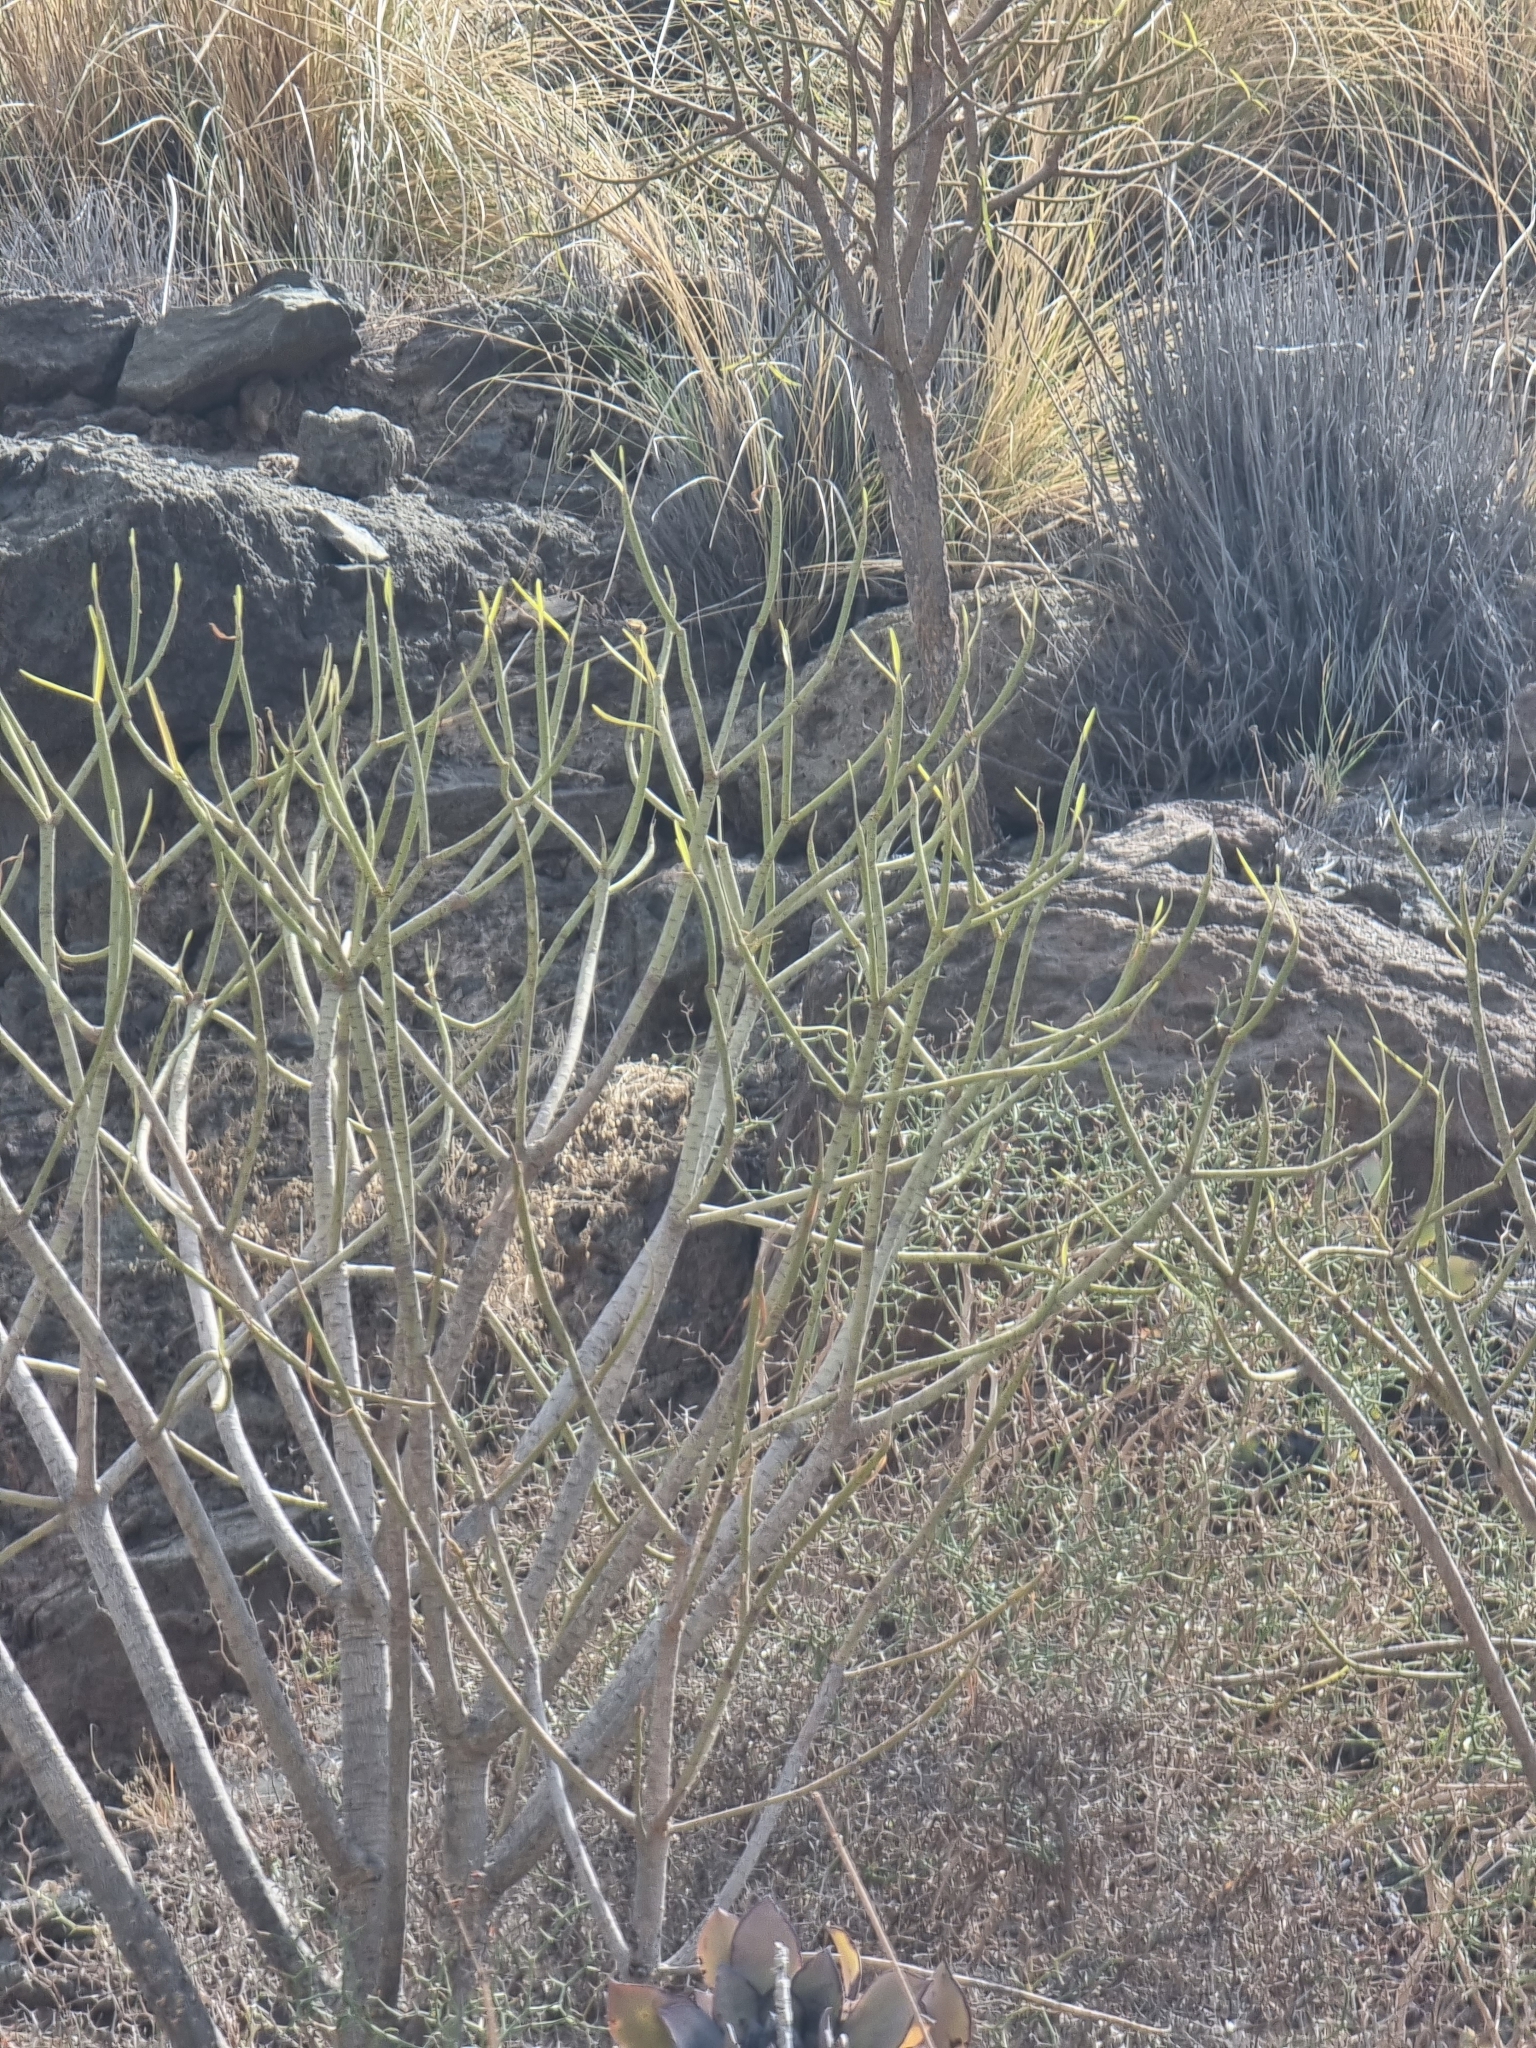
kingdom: Plantae
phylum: Tracheophyta
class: Magnoliopsida
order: Malpighiales
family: Euphorbiaceae
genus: Euphorbia
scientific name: Euphorbia regis-jubae
